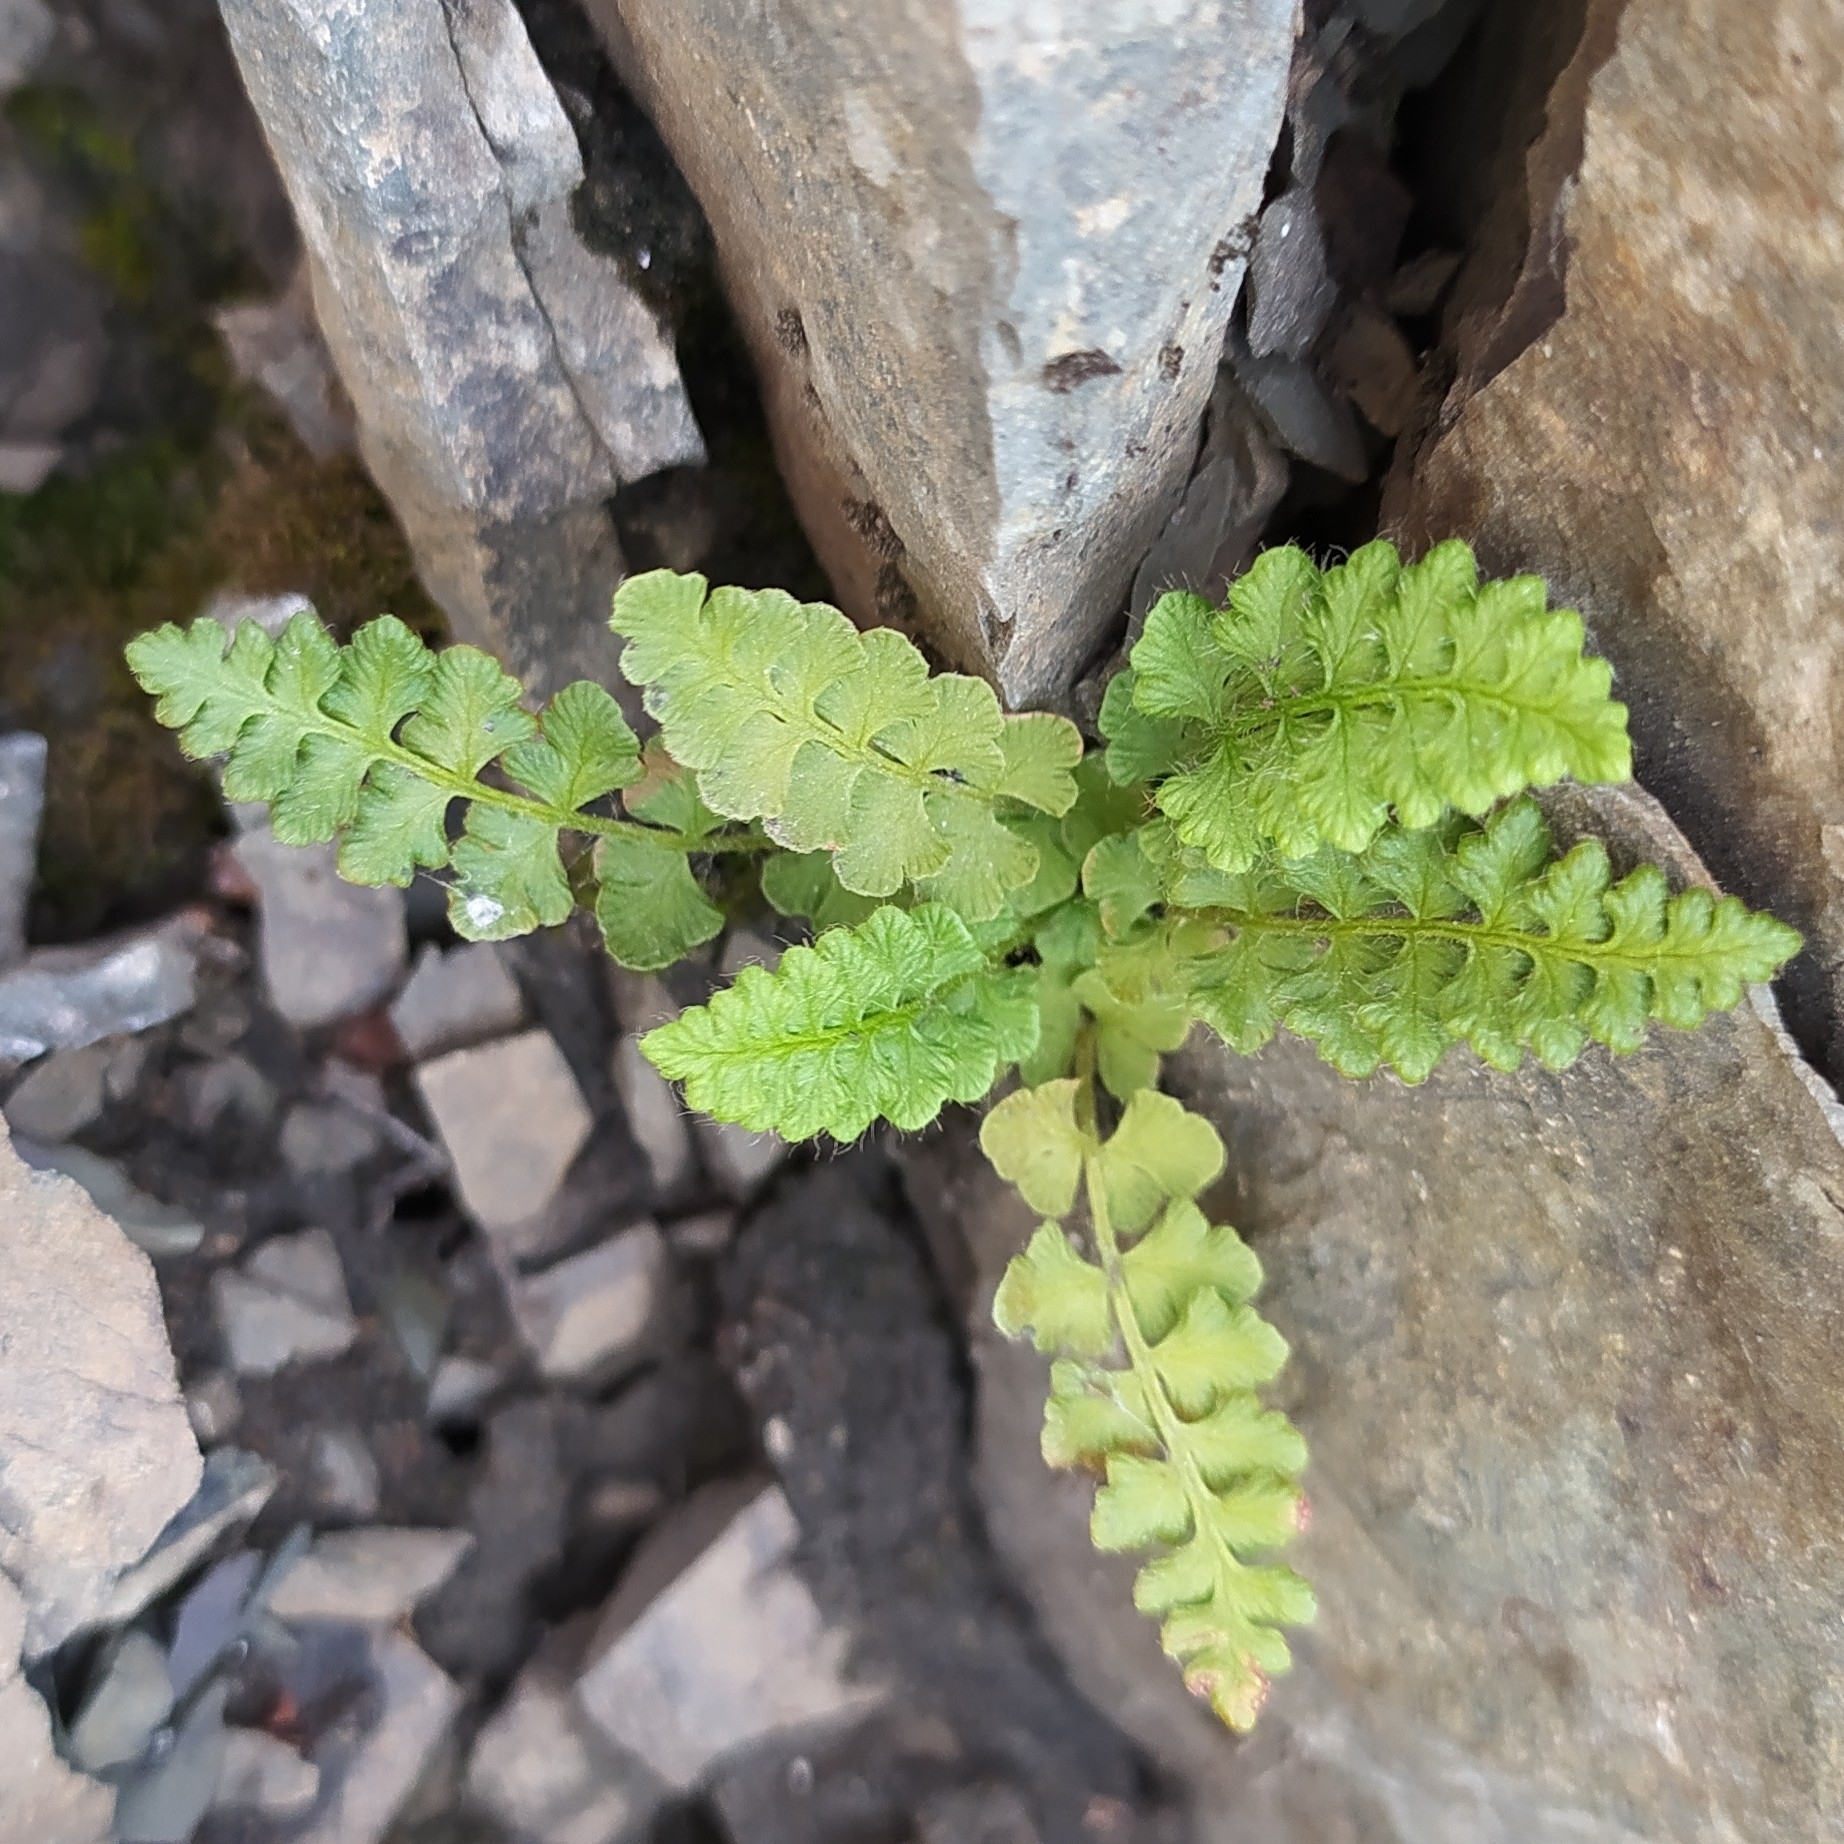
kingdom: Plantae
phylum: Tracheophyta
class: Polypodiopsida
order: Polypodiales
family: Woodsiaceae
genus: Woodsia
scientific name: Woodsia alpina
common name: Alpine woodsia
